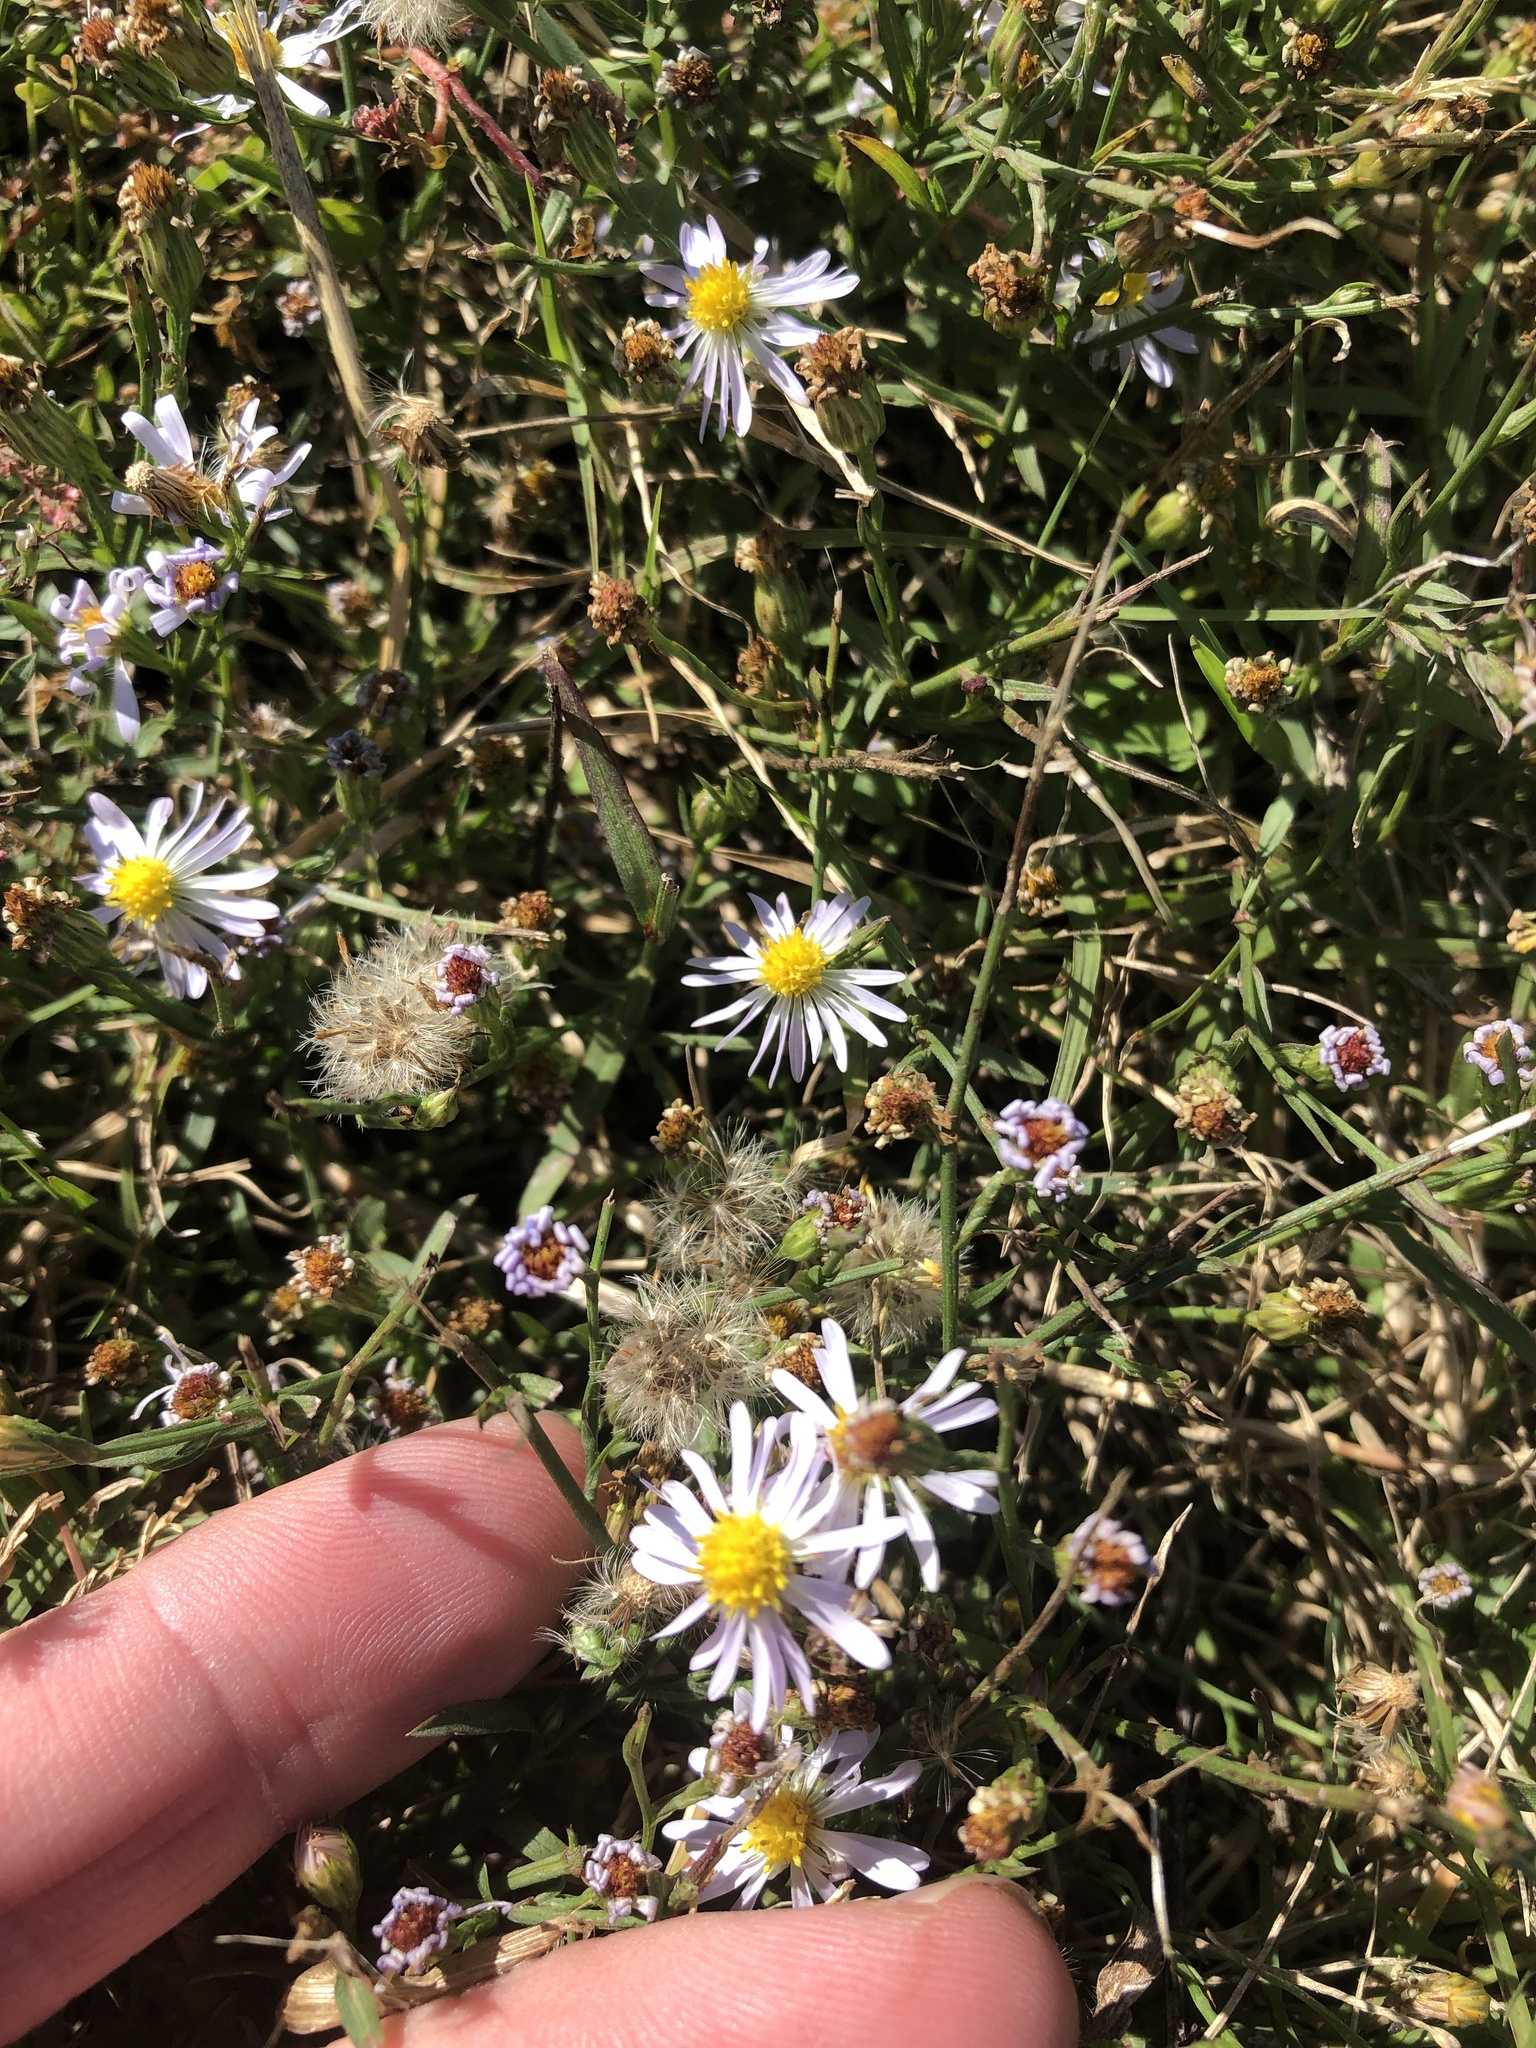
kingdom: Plantae
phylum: Tracheophyta
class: Magnoliopsida
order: Asterales
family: Asteraceae
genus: Symphyotrichum
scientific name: Symphyotrichum divaricatum
